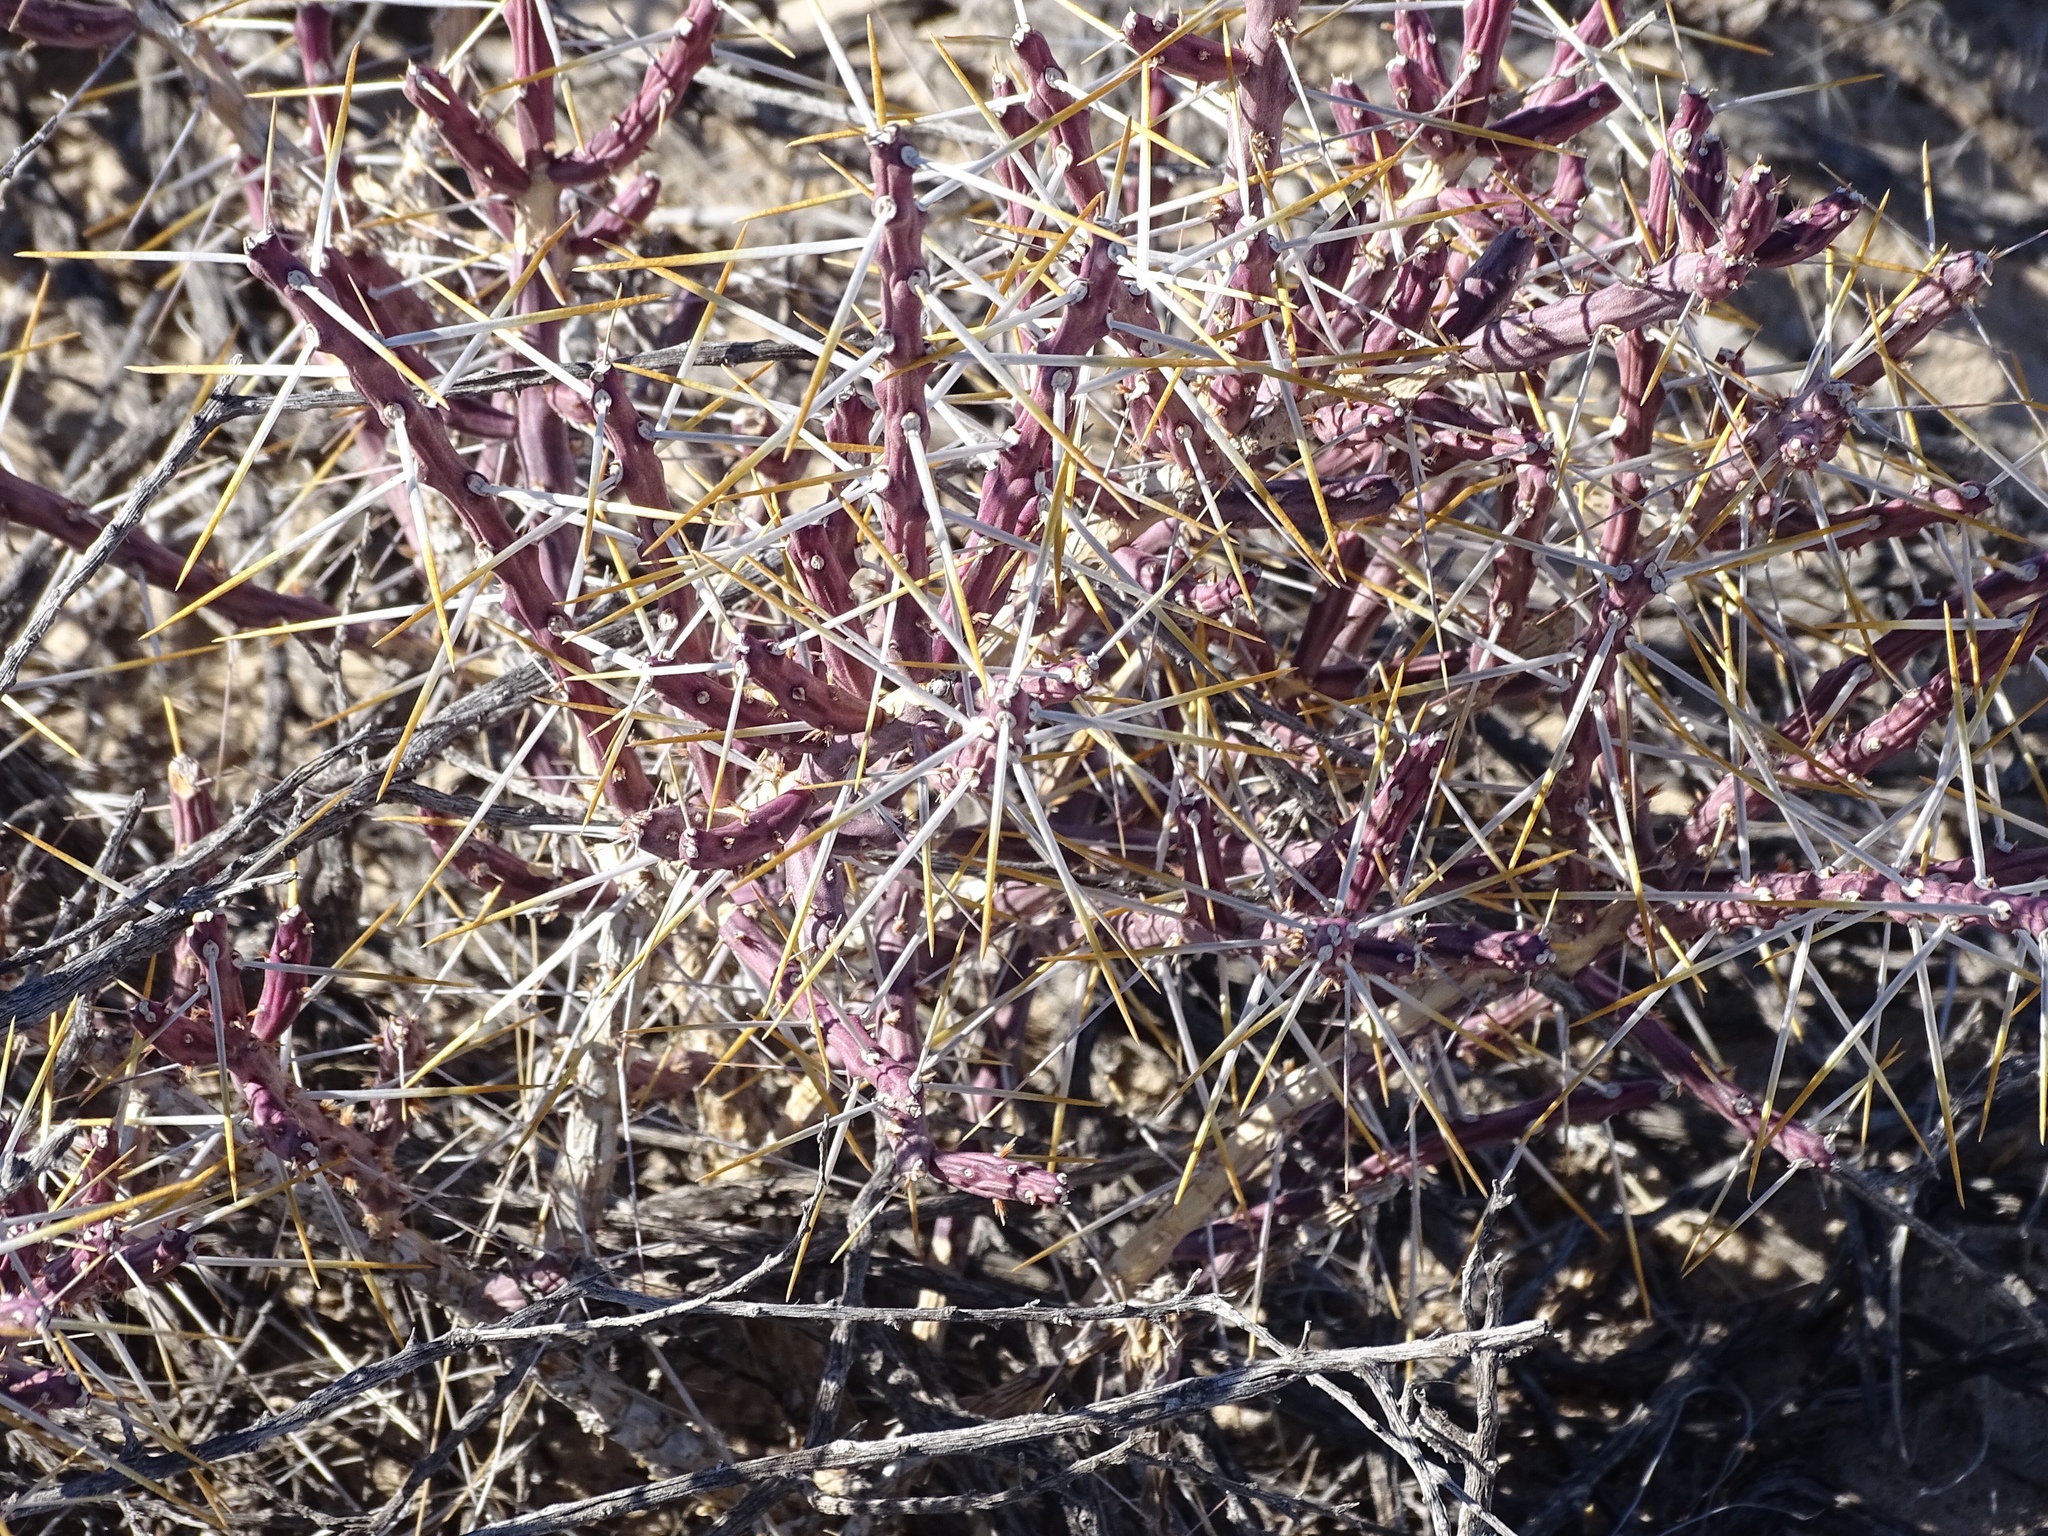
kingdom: Plantae
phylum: Tracheophyta
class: Magnoliopsida
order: Caryophyllales
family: Cactaceae
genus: Cylindropuntia
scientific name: Cylindropuntia leptocaulis
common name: Christmas cactus
